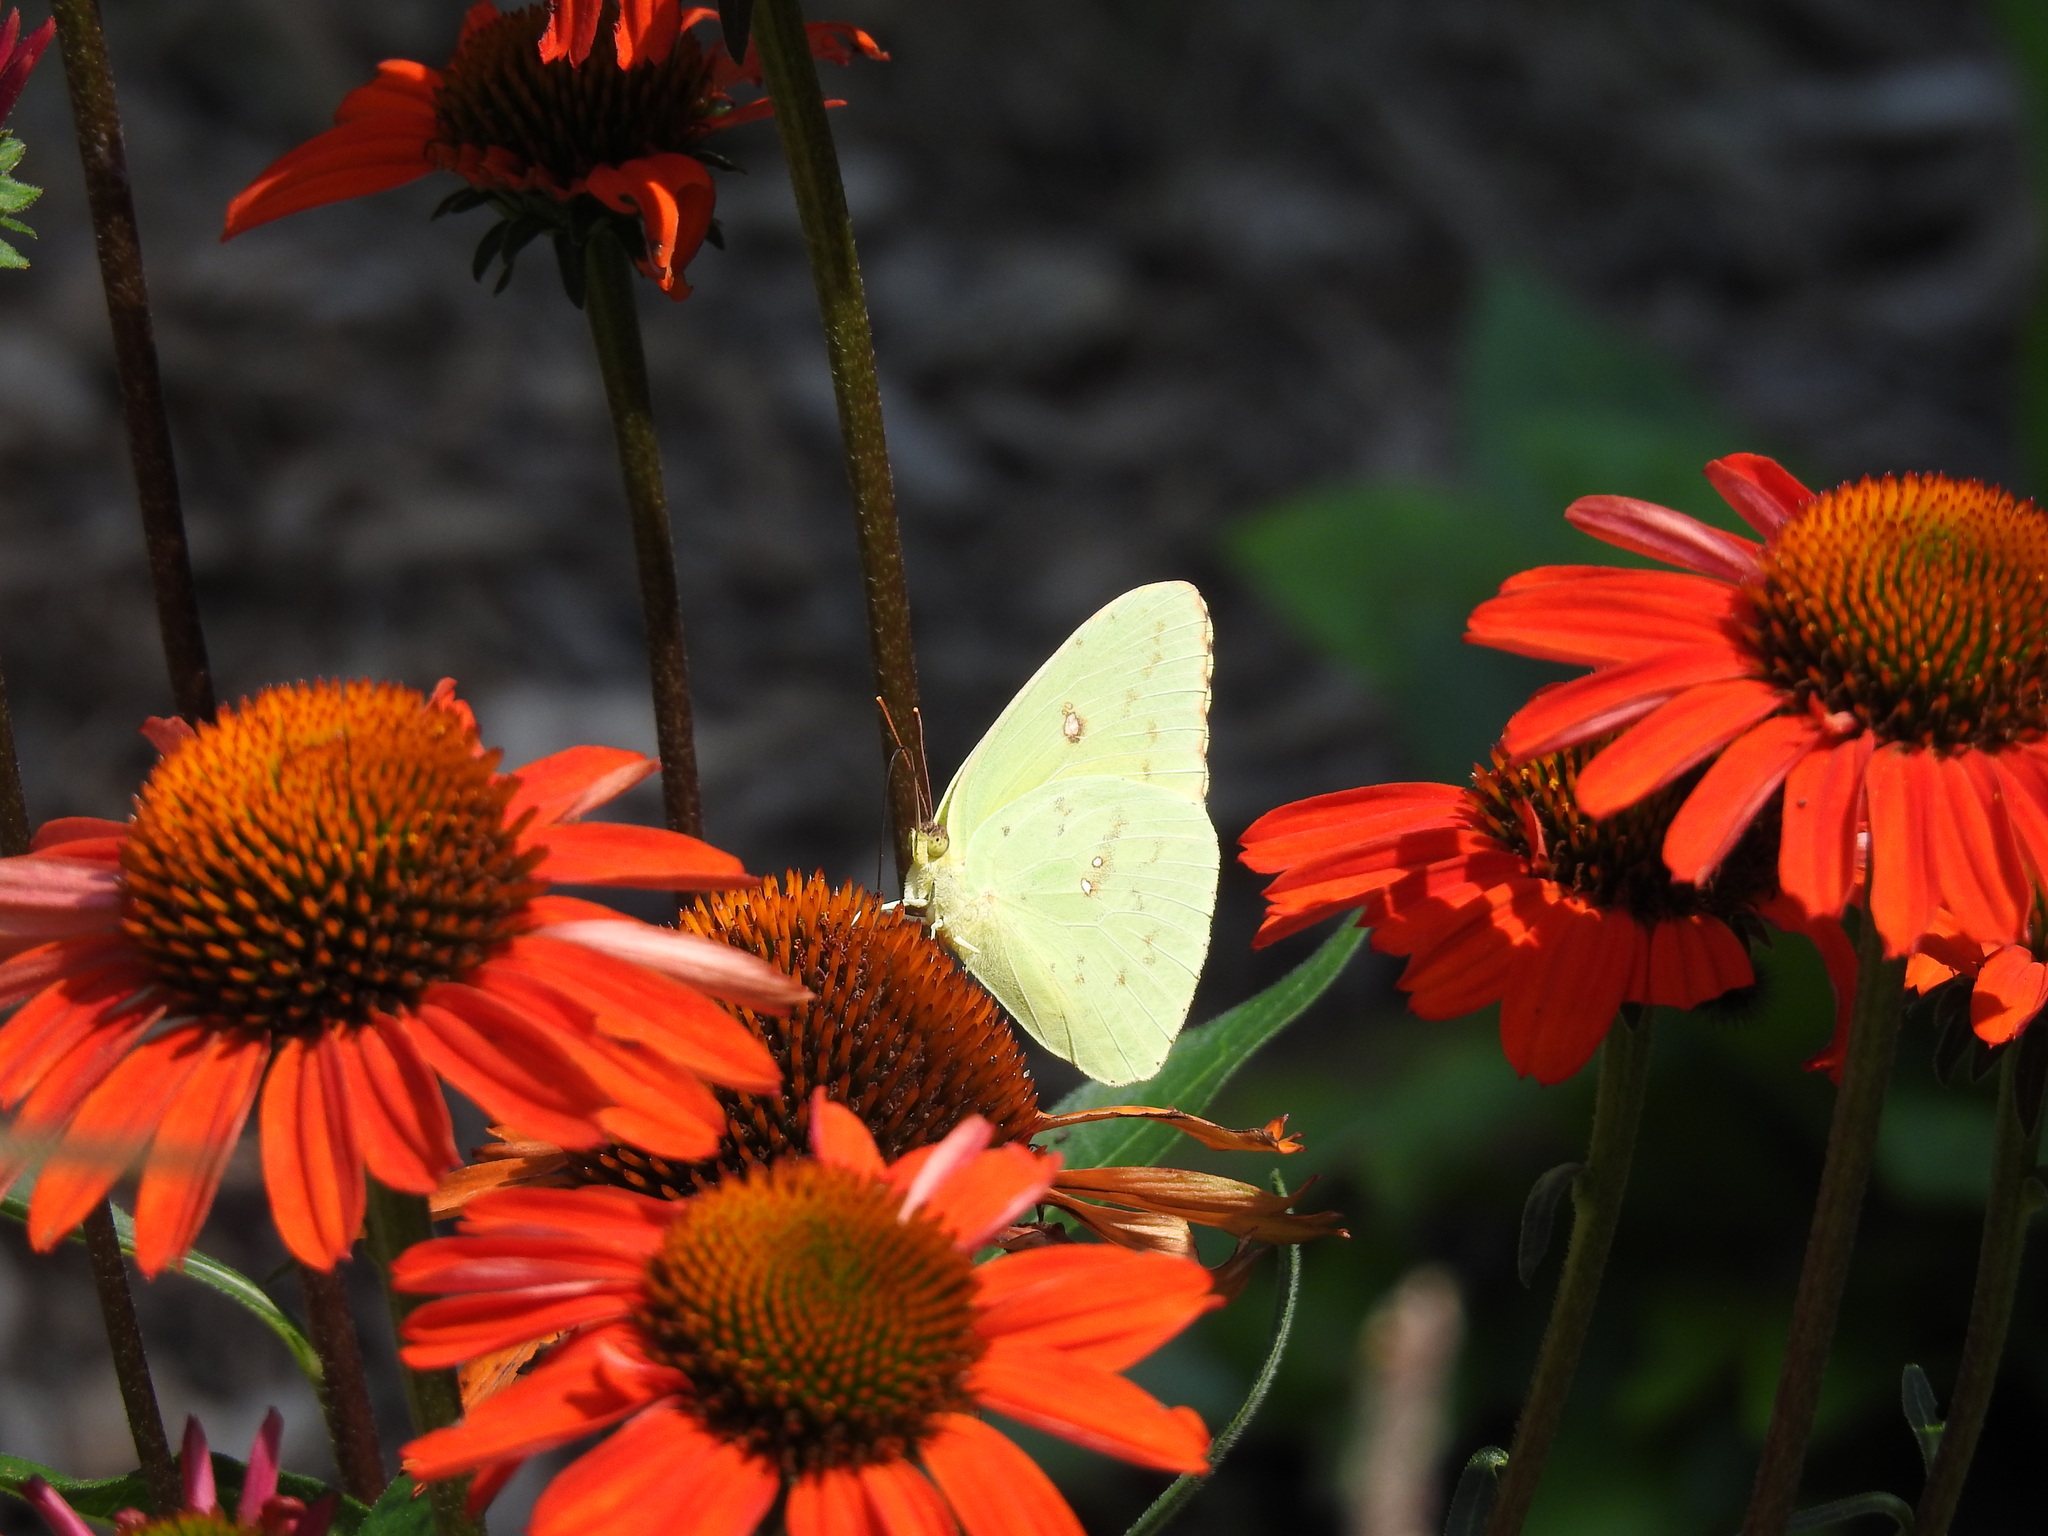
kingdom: Animalia
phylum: Arthropoda
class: Insecta
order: Lepidoptera
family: Pieridae
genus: Phoebis
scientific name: Phoebis sennae
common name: Cloudless sulphur
